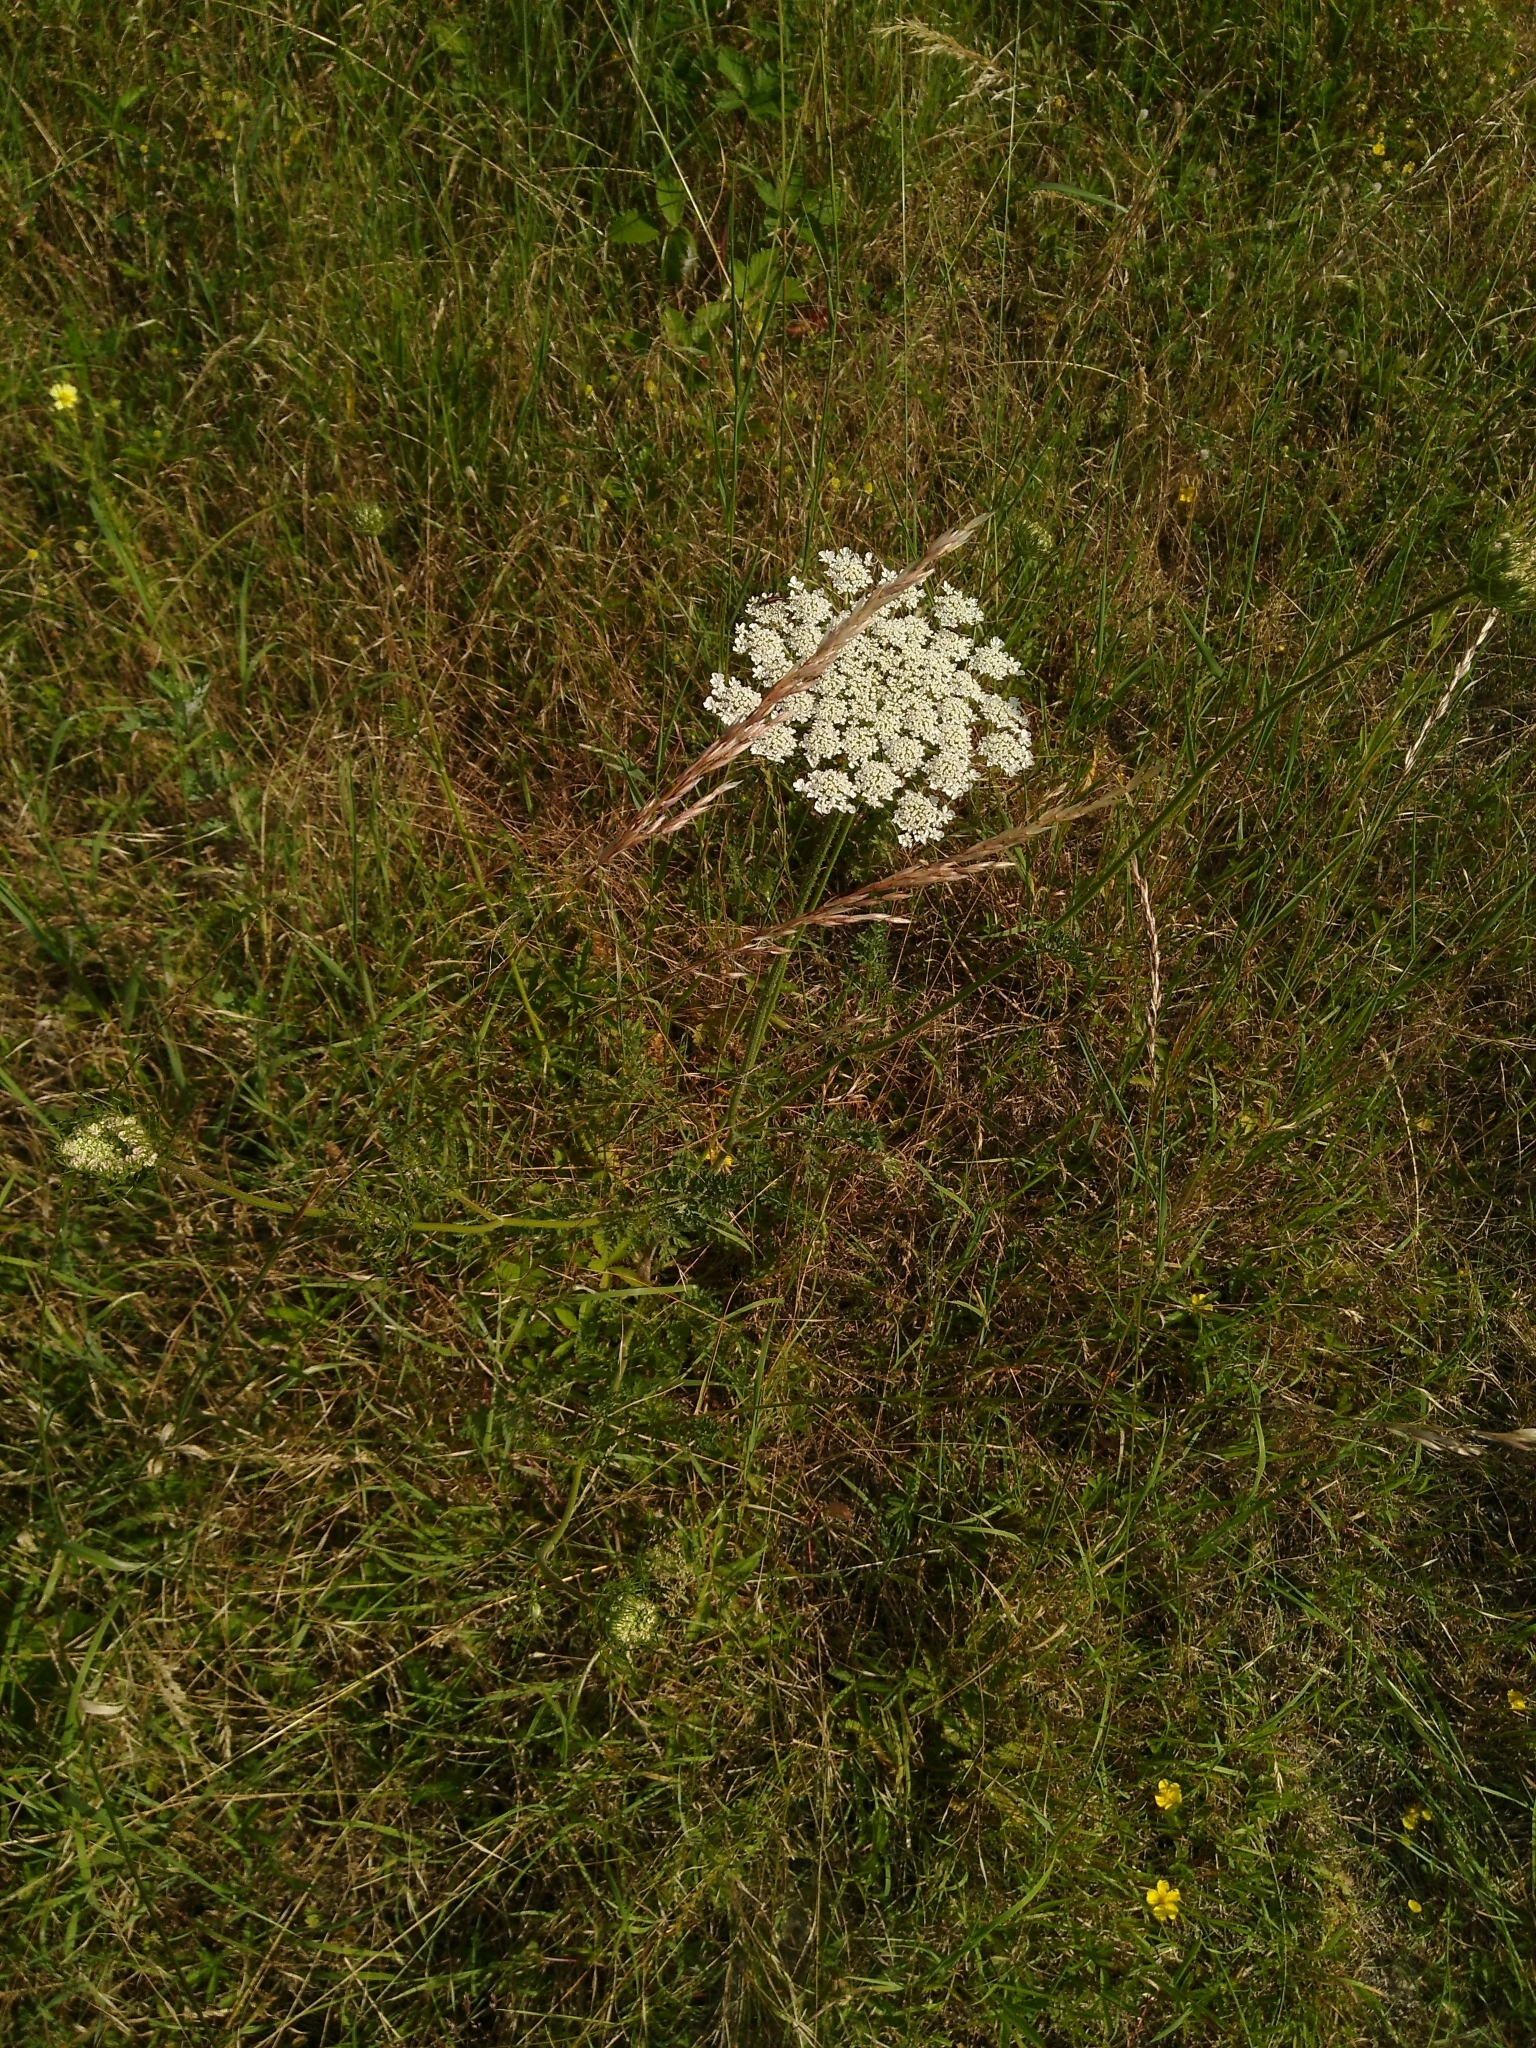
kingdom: Plantae
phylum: Tracheophyta
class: Magnoliopsida
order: Apiales
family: Apiaceae
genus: Daucus
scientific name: Daucus carota
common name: Wild carrot
